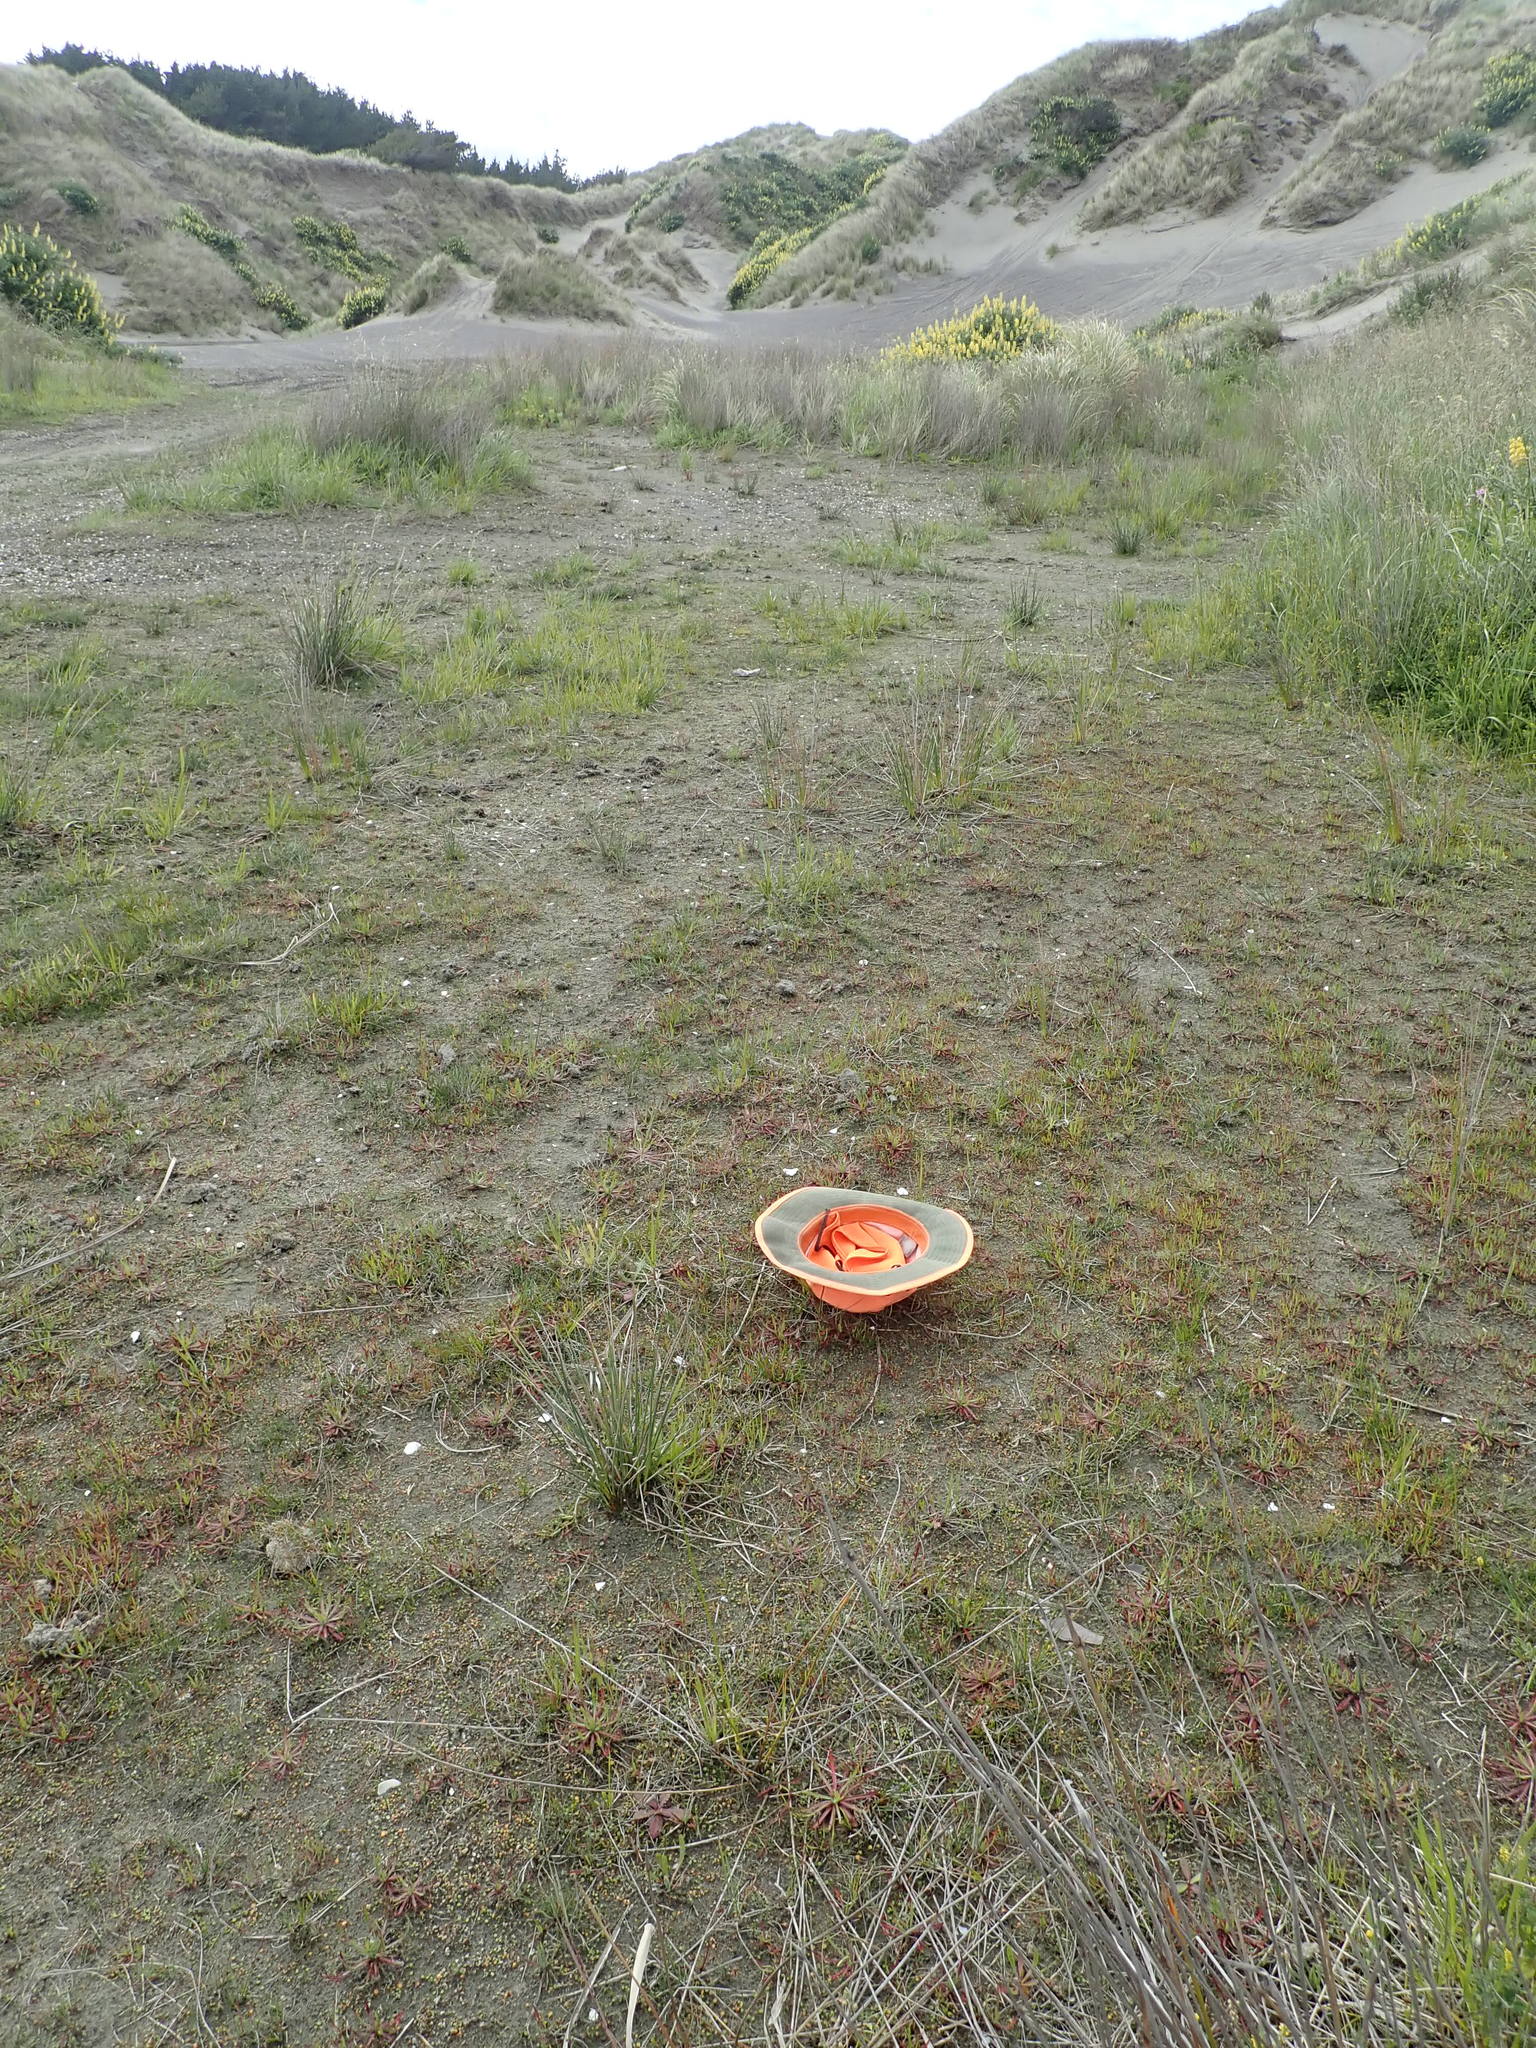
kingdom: Plantae
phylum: Tracheophyta
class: Magnoliopsida
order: Lamiales
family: Plantaginaceae
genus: Plantago
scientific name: Plantago coronopus
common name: Buck's-horn plantain
